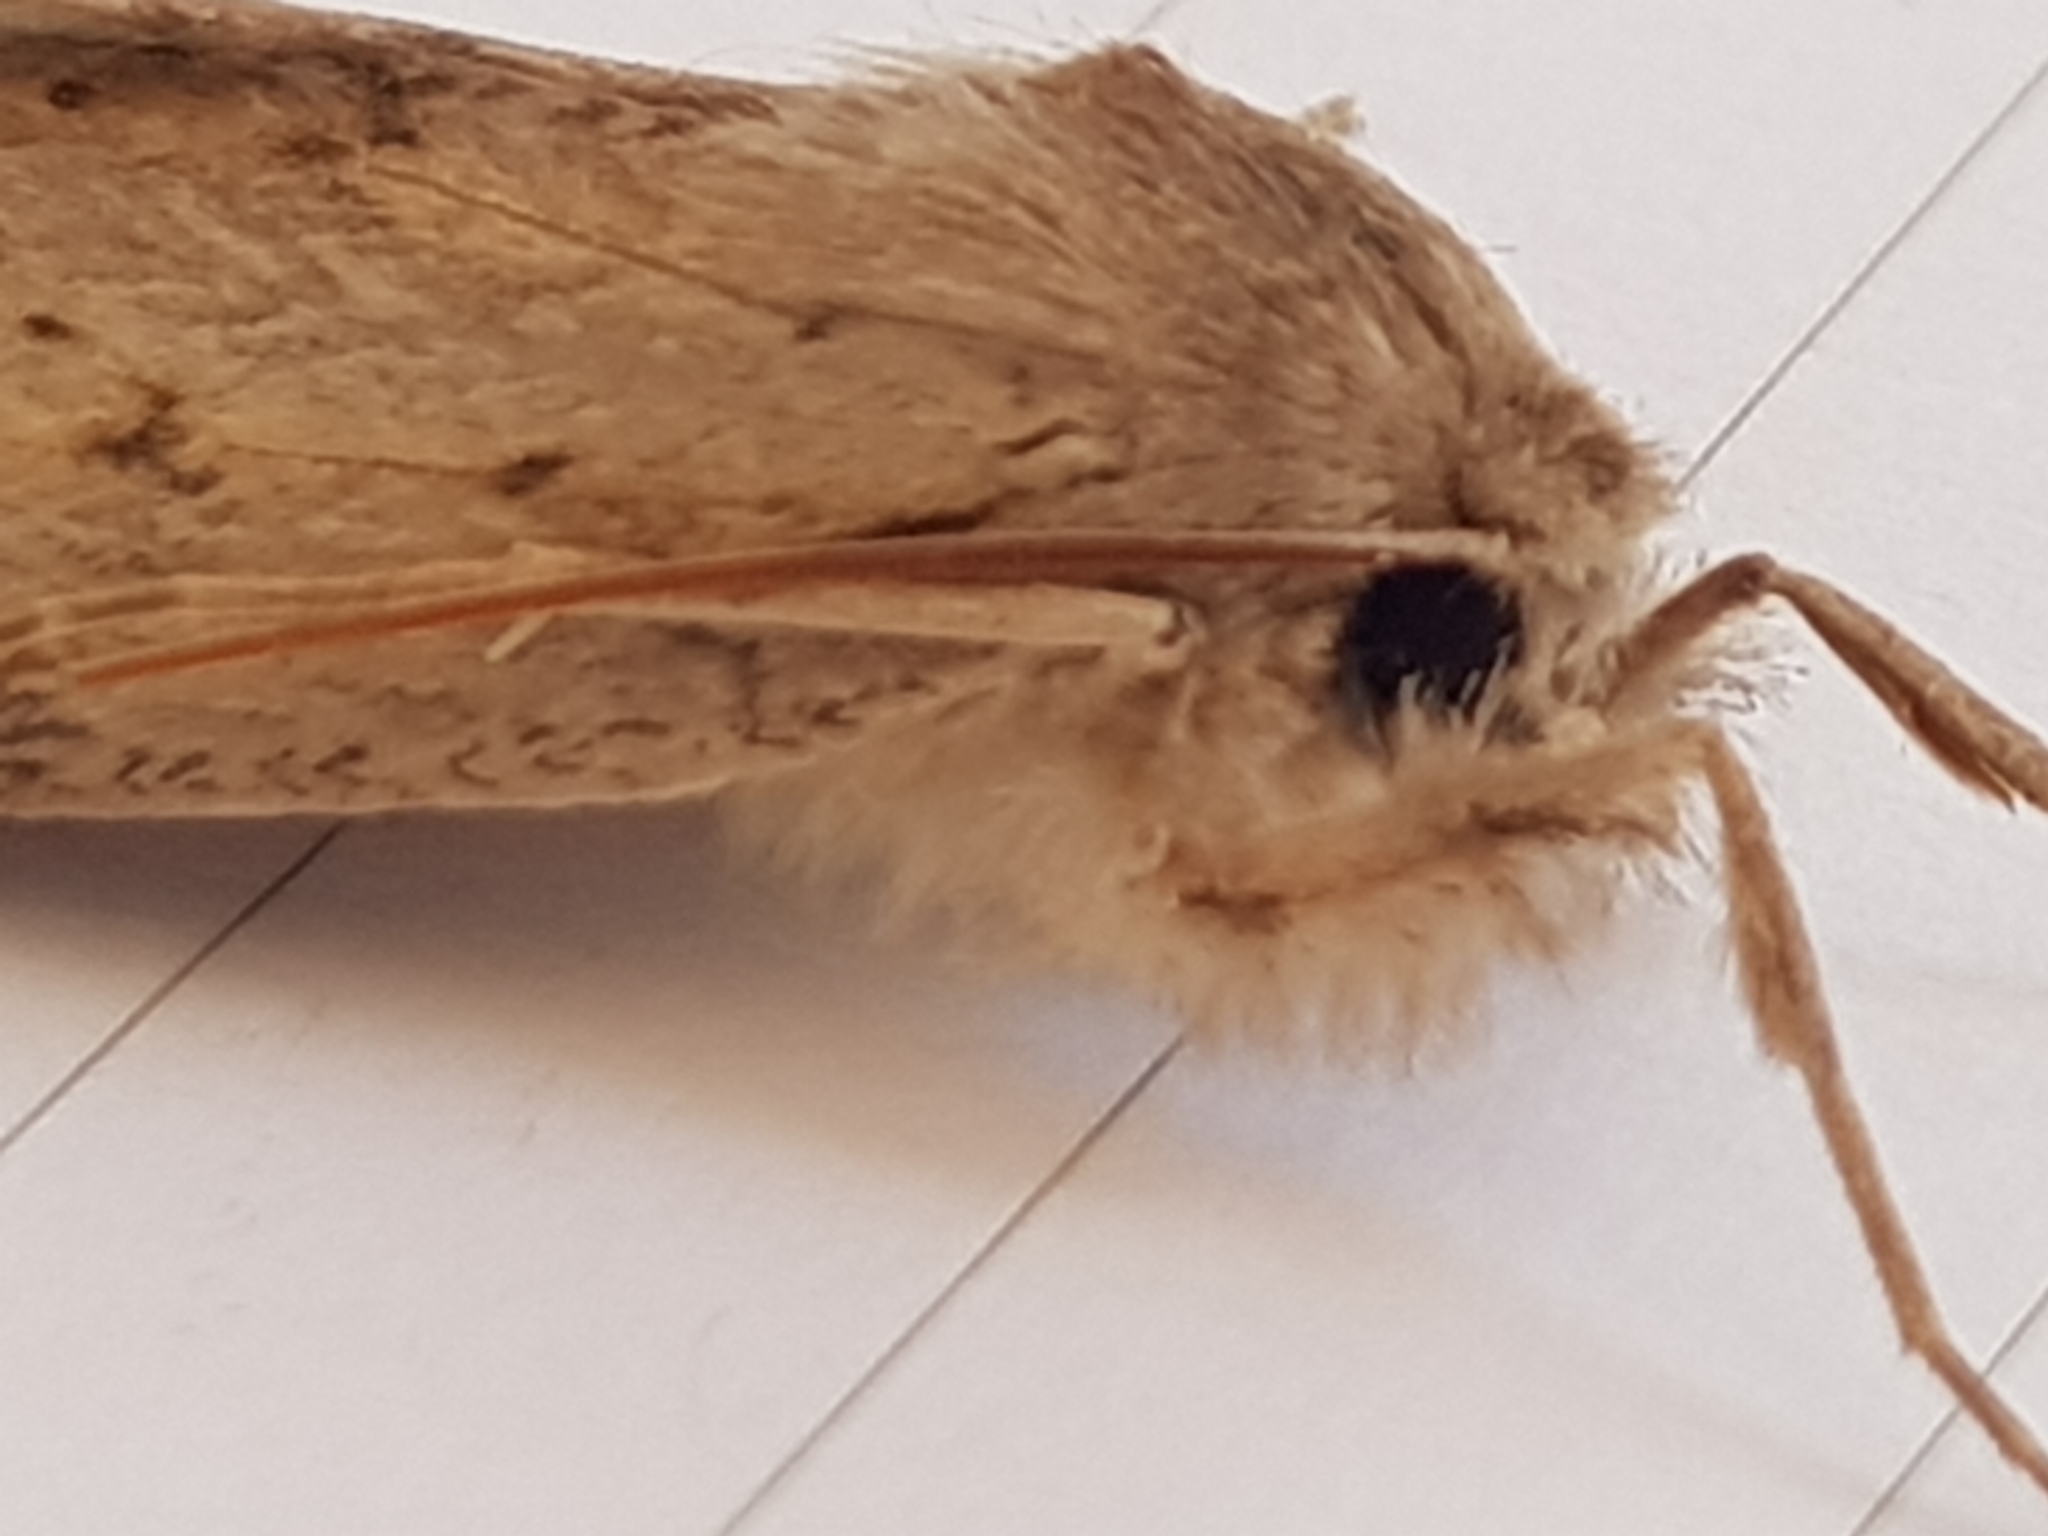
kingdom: Animalia
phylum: Arthropoda
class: Insecta
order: Lepidoptera
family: Geometridae
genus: Declana
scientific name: Declana leptomera
